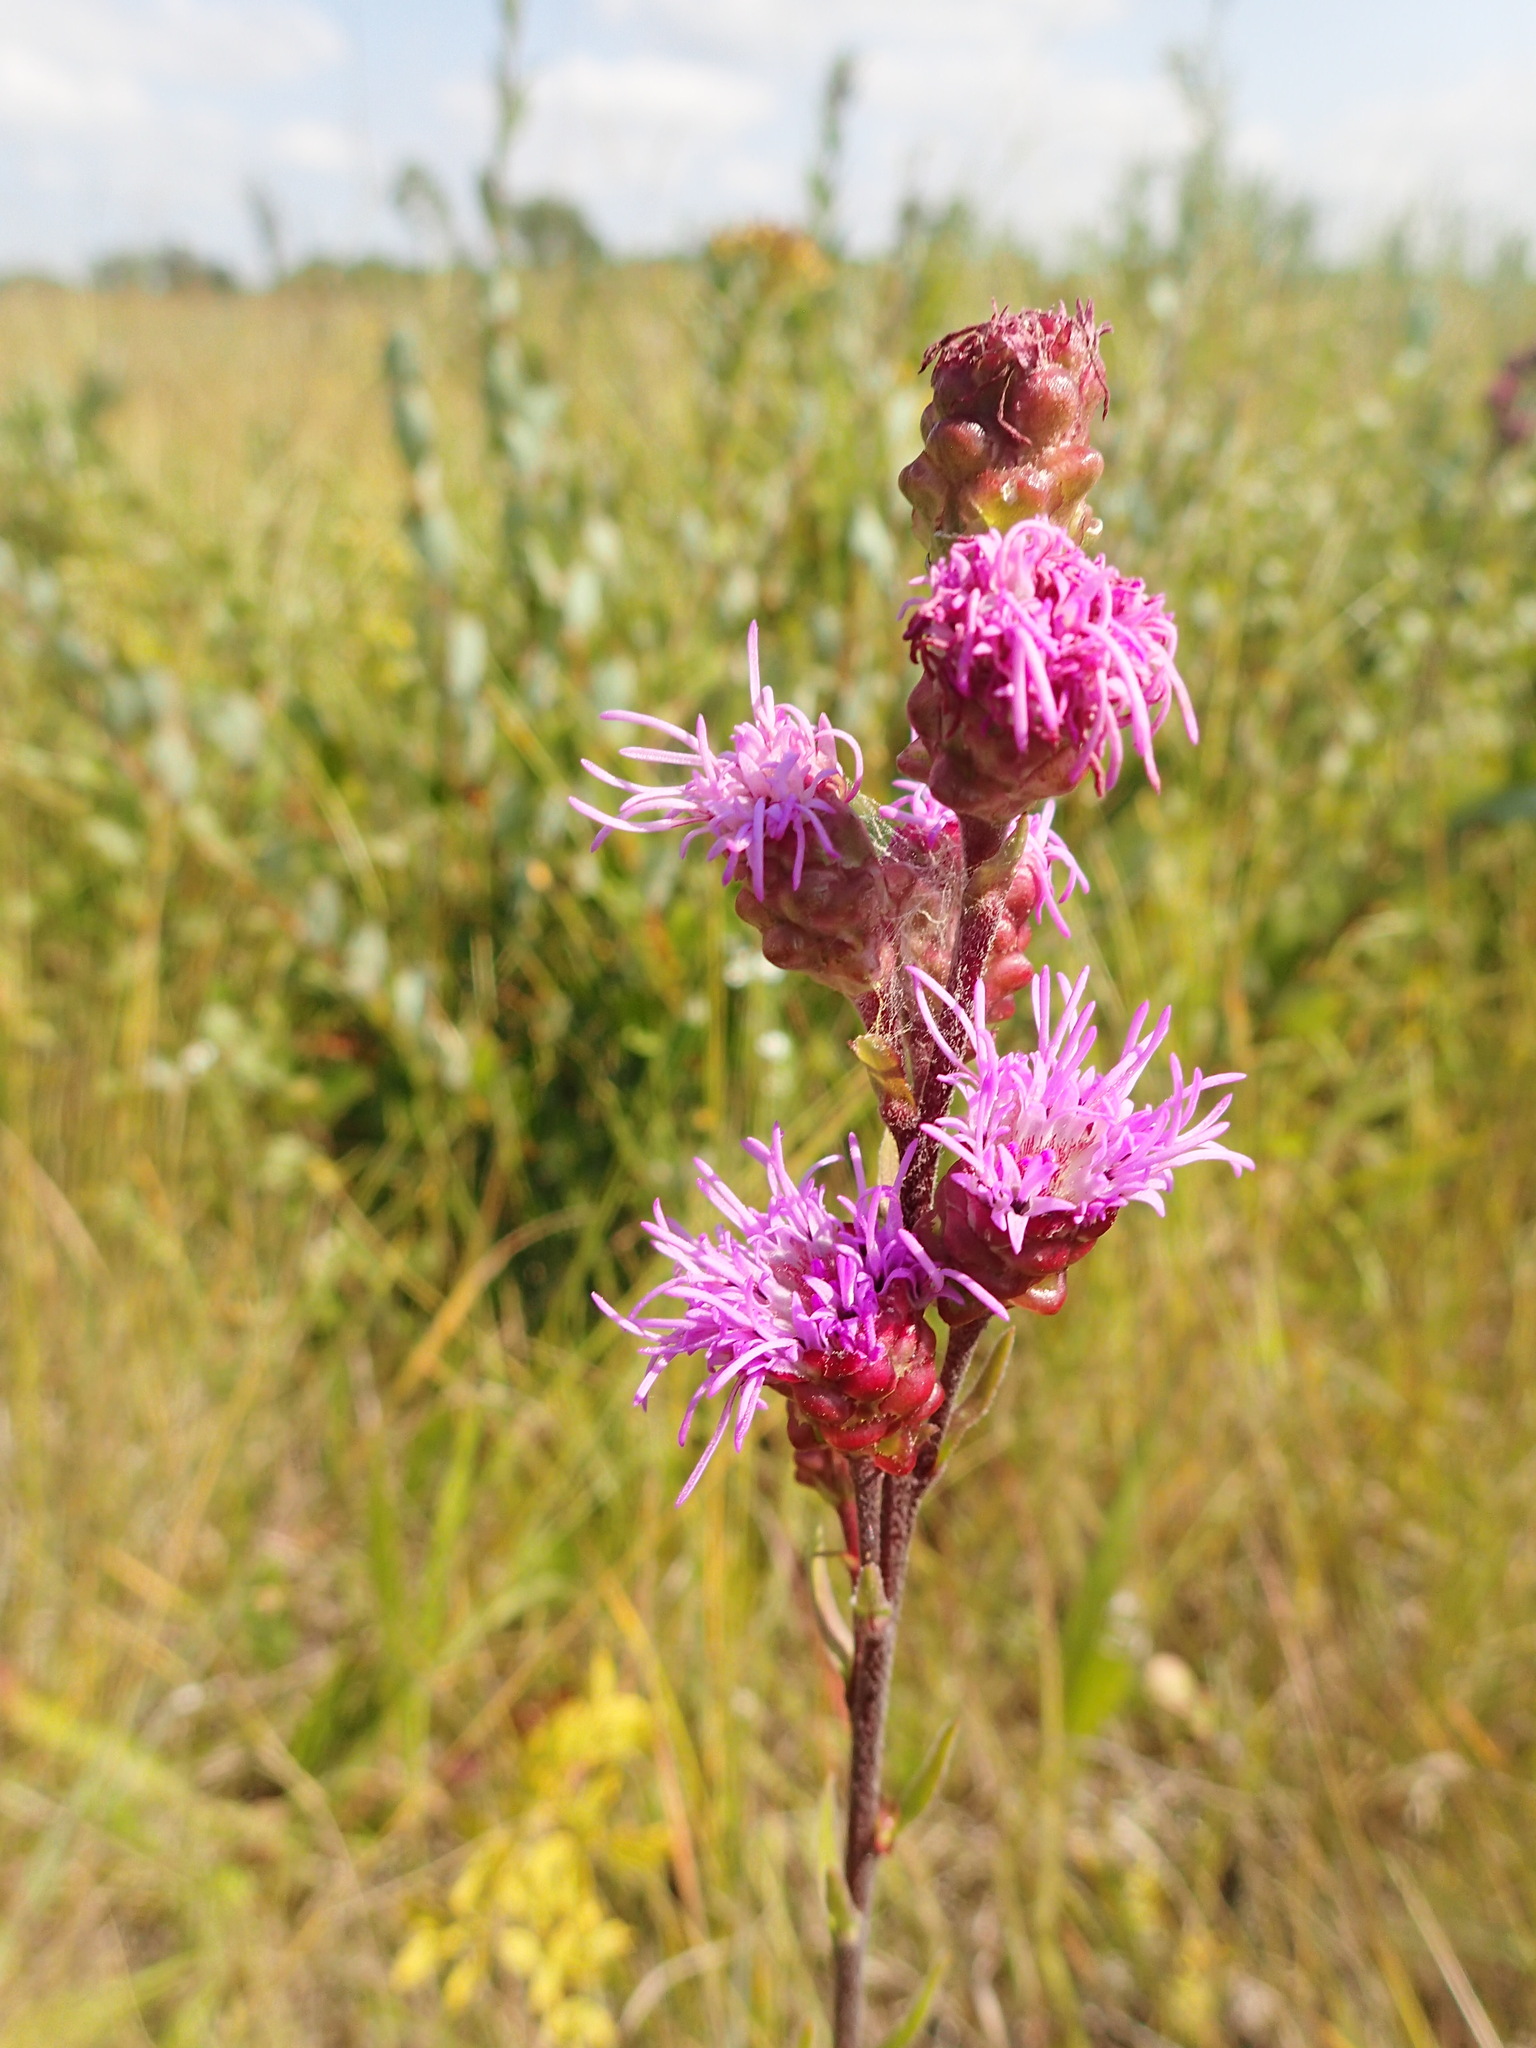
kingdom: Plantae
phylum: Tracheophyta
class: Magnoliopsida
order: Asterales
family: Asteraceae
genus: Liatris
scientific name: Liatris ligulistylis
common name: Northern plains gayfeather
